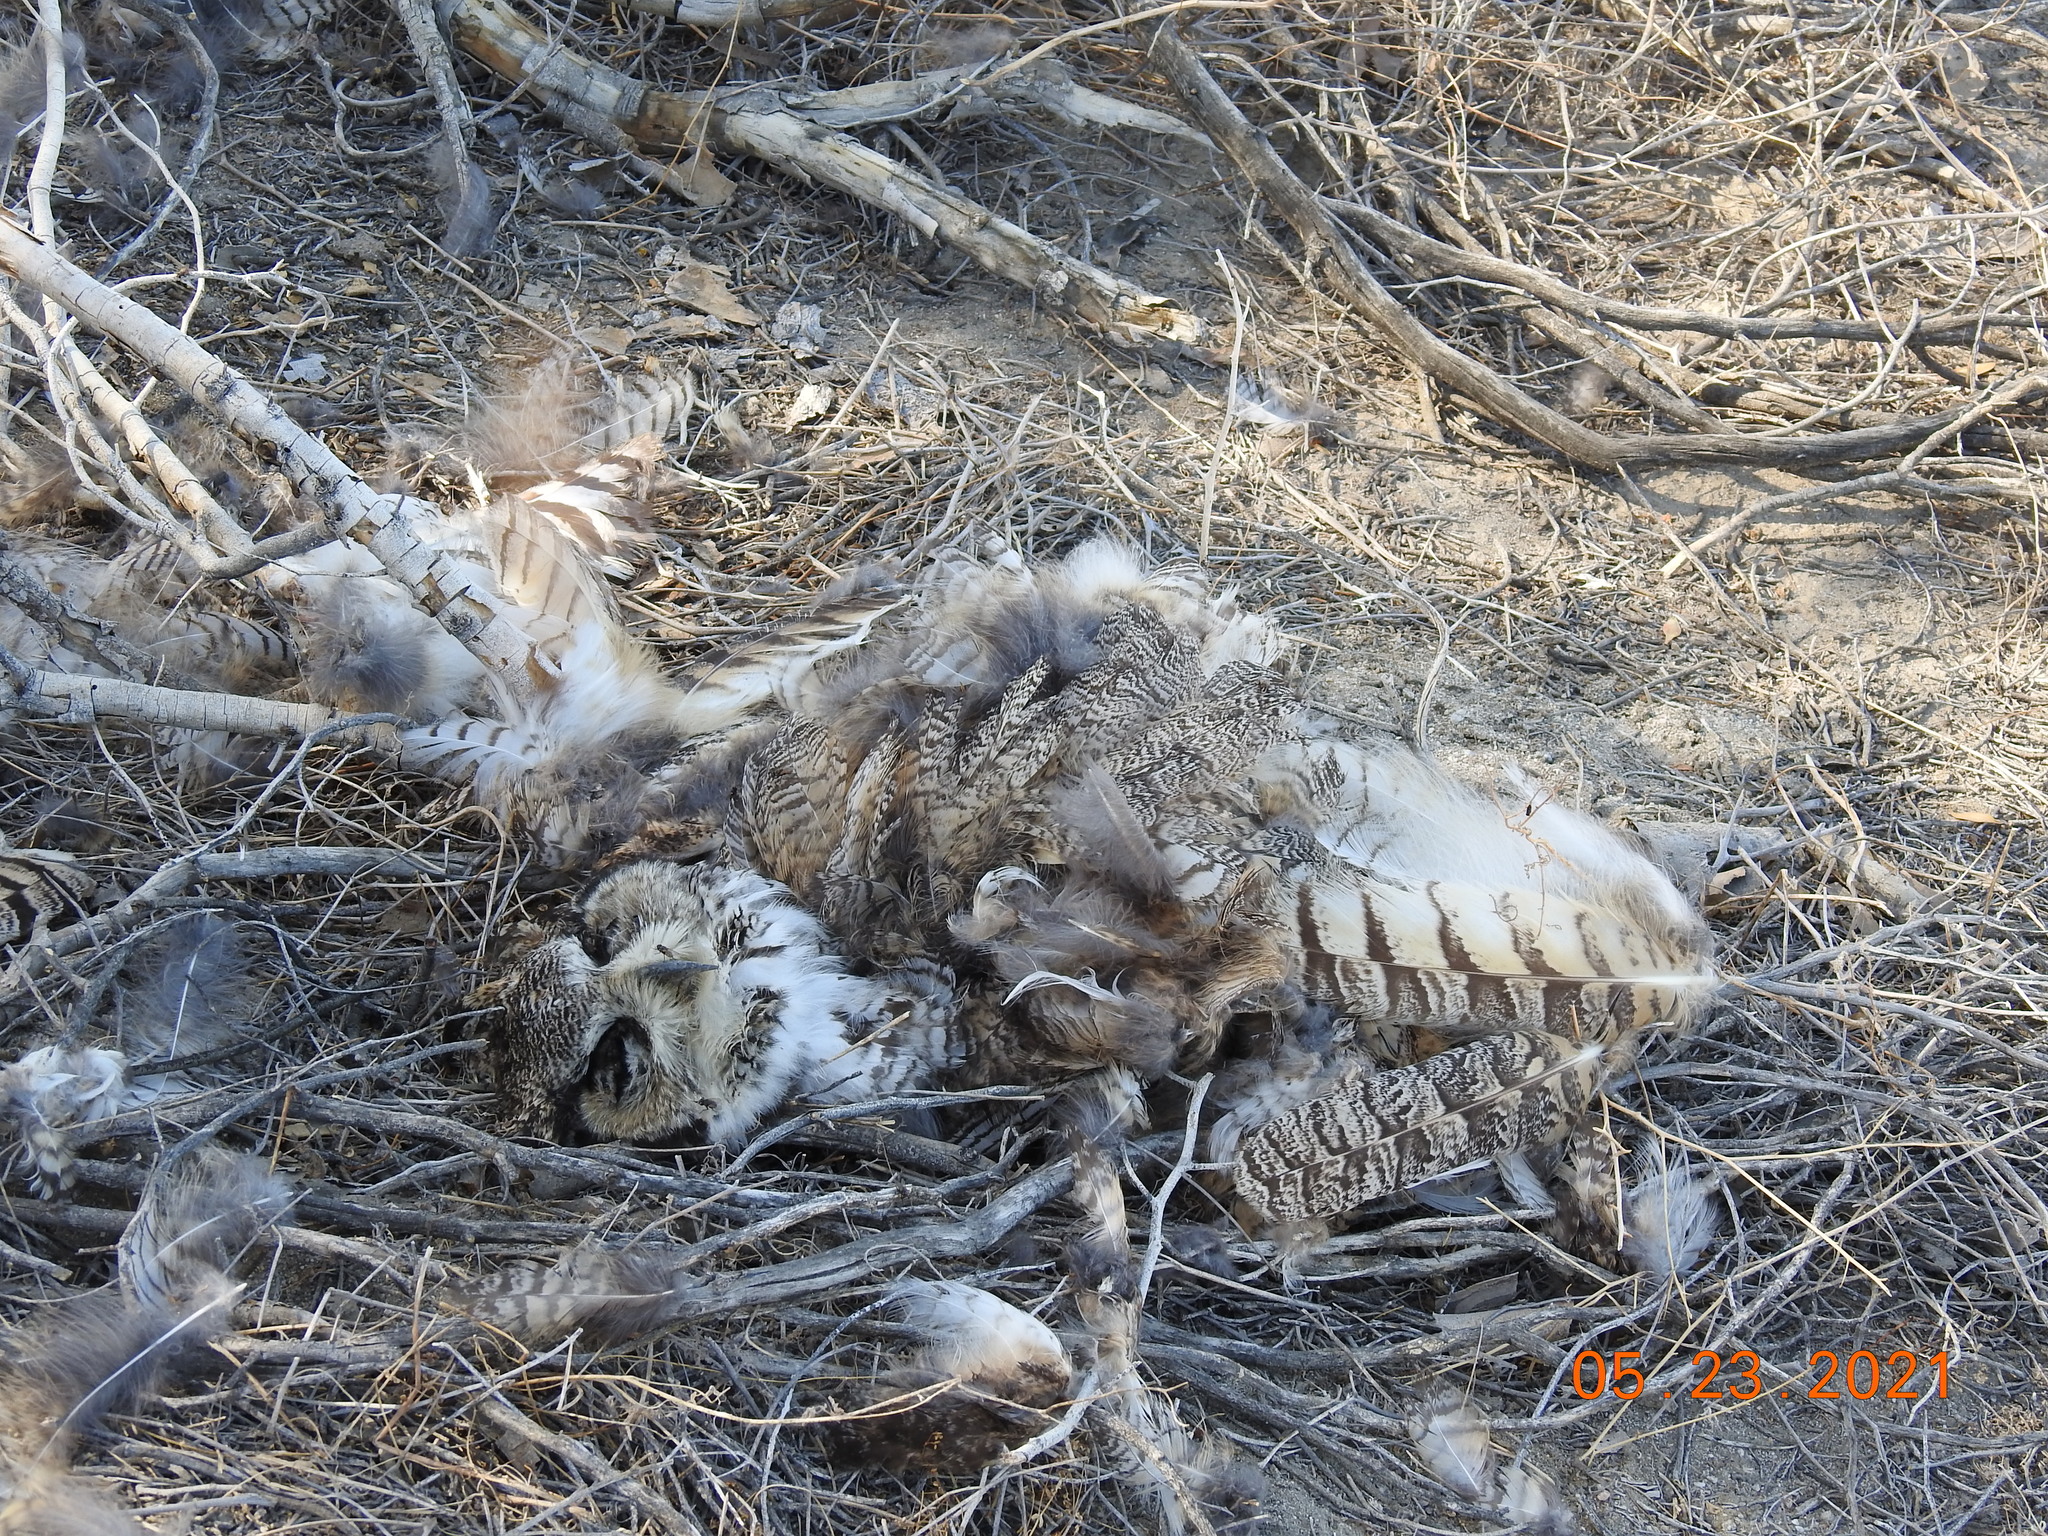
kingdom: Animalia
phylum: Chordata
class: Aves
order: Strigiformes
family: Strigidae
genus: Bubo
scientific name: Bubo virginianus
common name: Great horned owl
